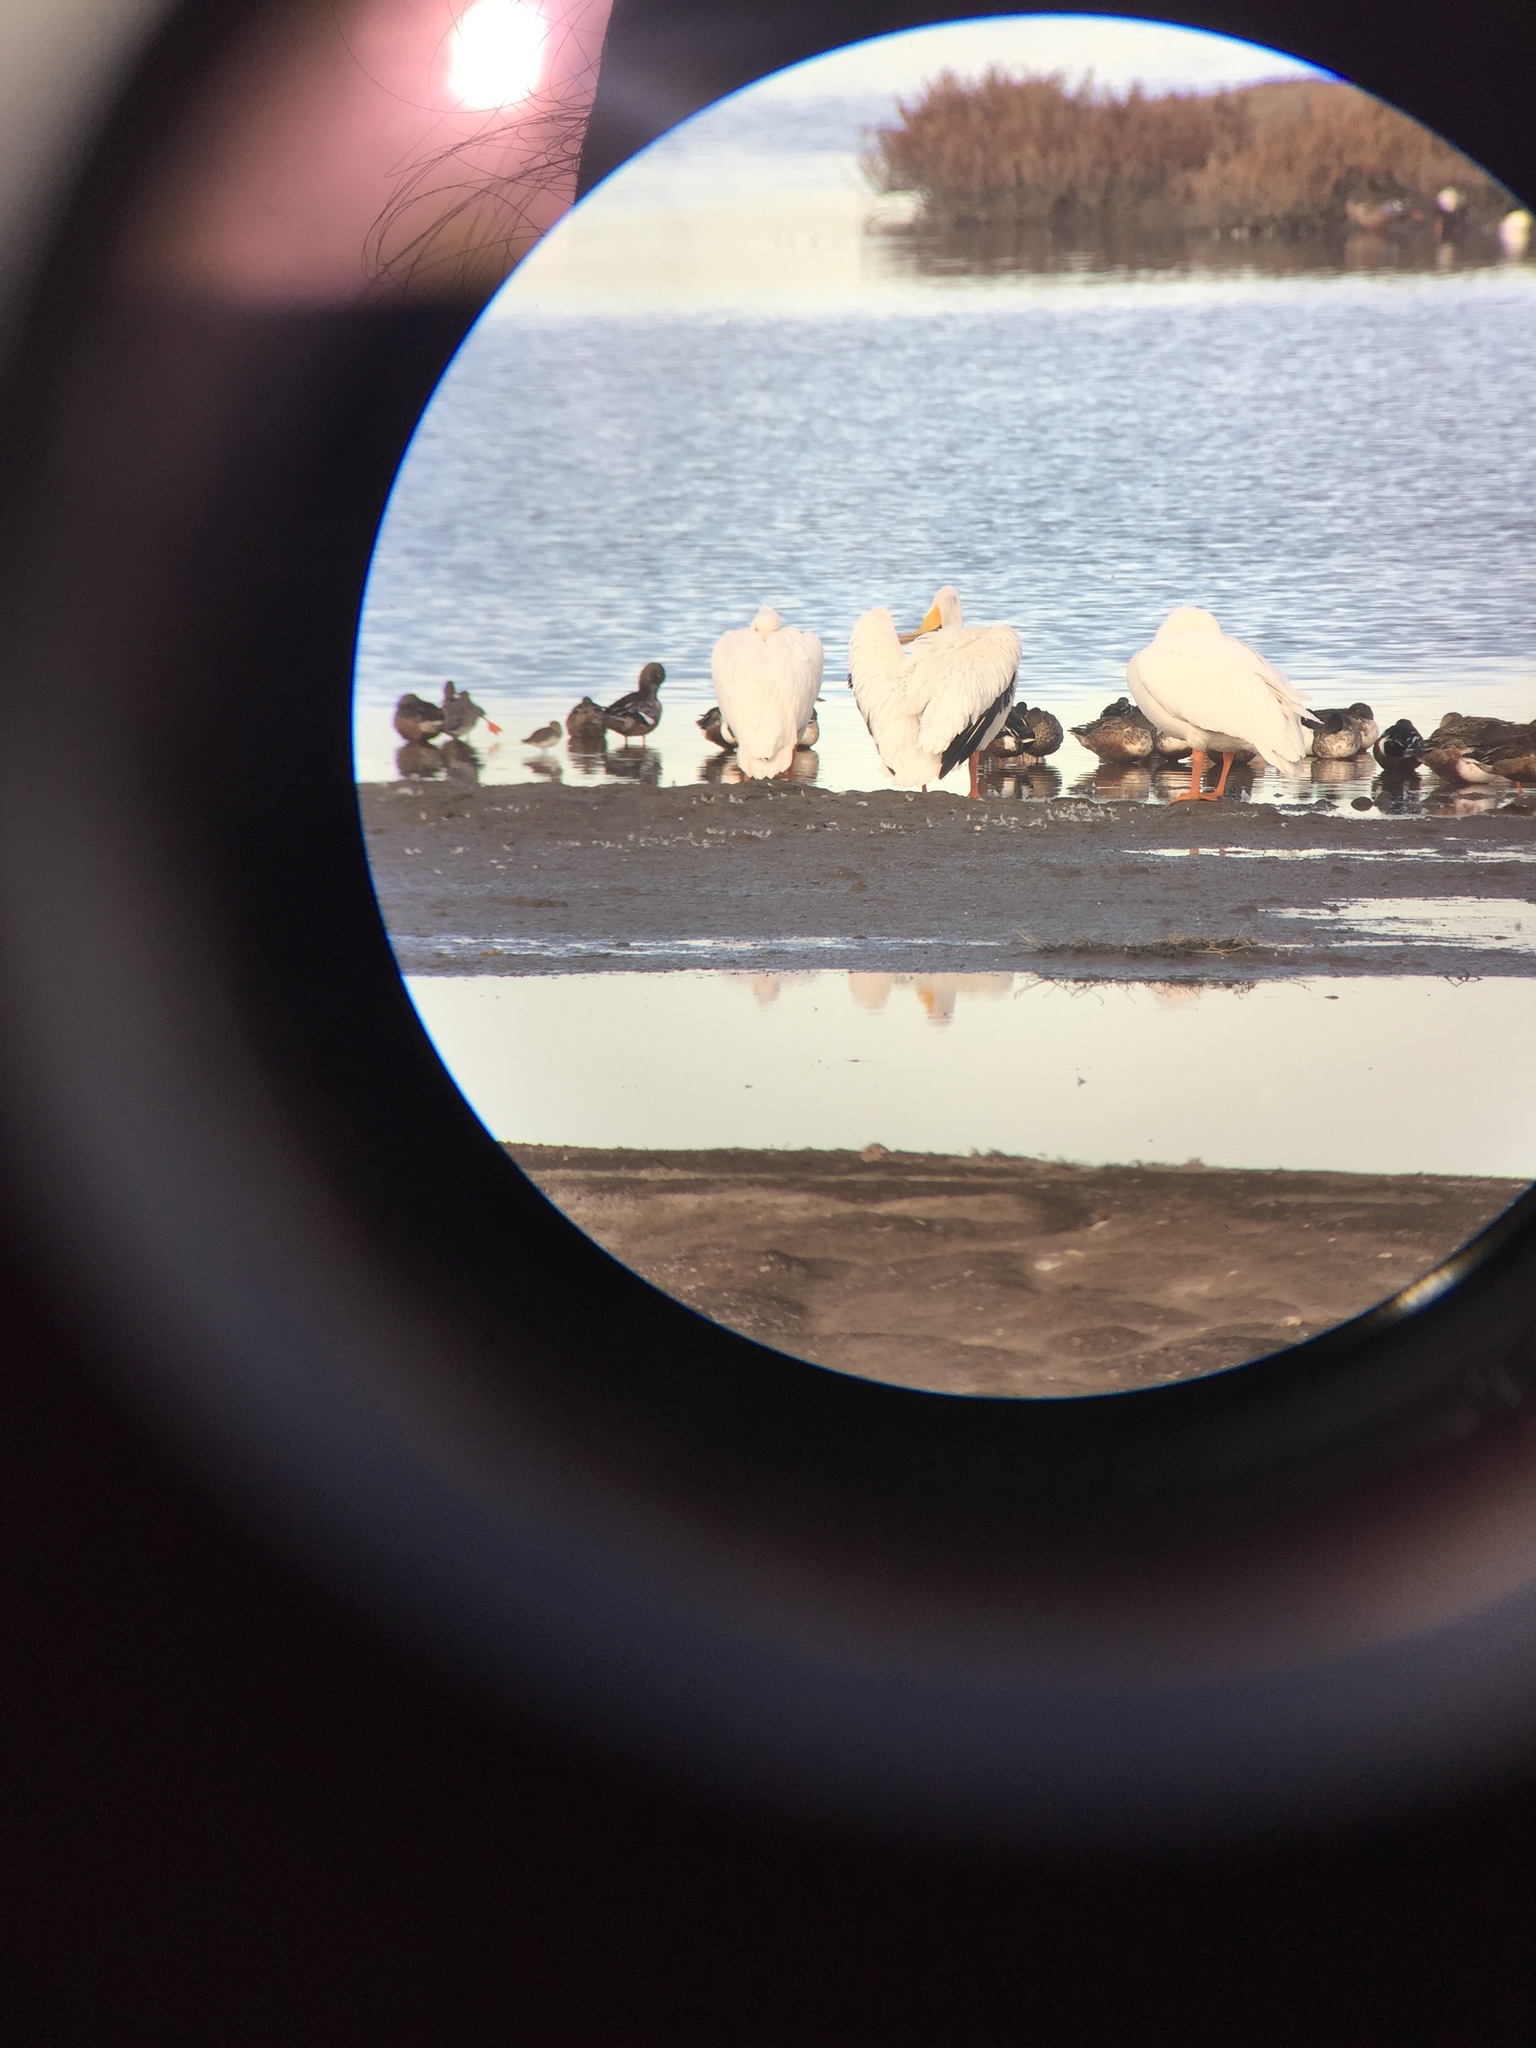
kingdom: Animalia
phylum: Chordata
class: Aves
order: Pelecaniformes
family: Pelecanidae
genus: Pelecanus
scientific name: Pelecanus erythrorhynchos
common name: American white pelican
